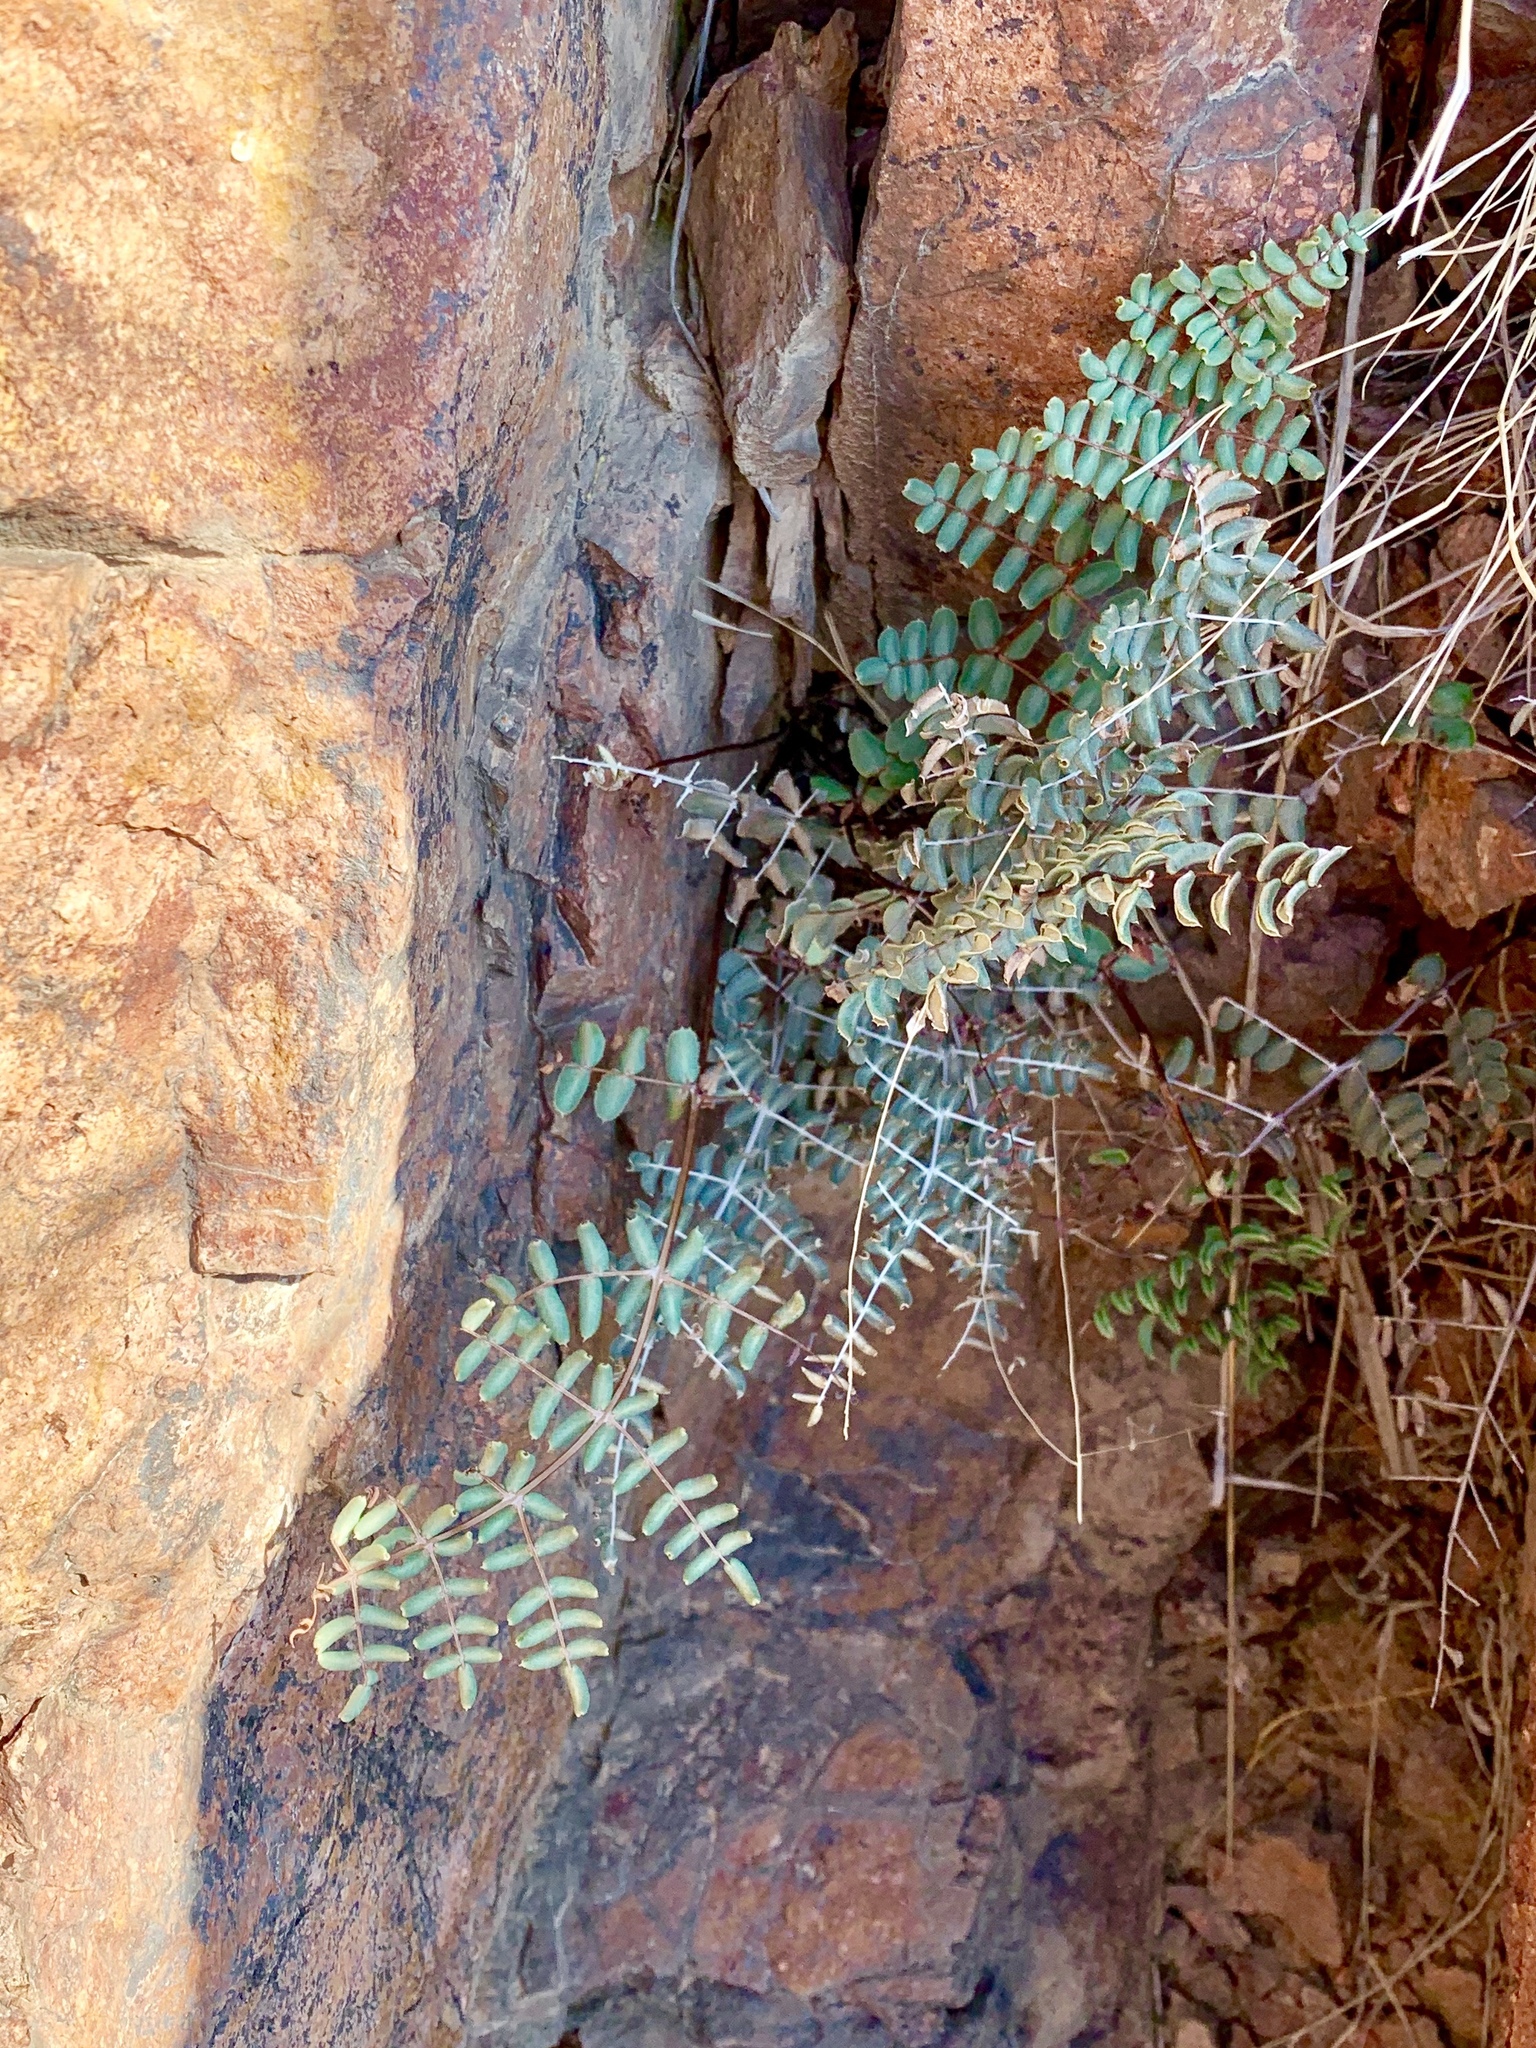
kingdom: Plantae
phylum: Tracheophyta
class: Polypodiopsida
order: Polypodiales
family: Pteridaceae
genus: Pellaea
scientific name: Pellaea truncata
